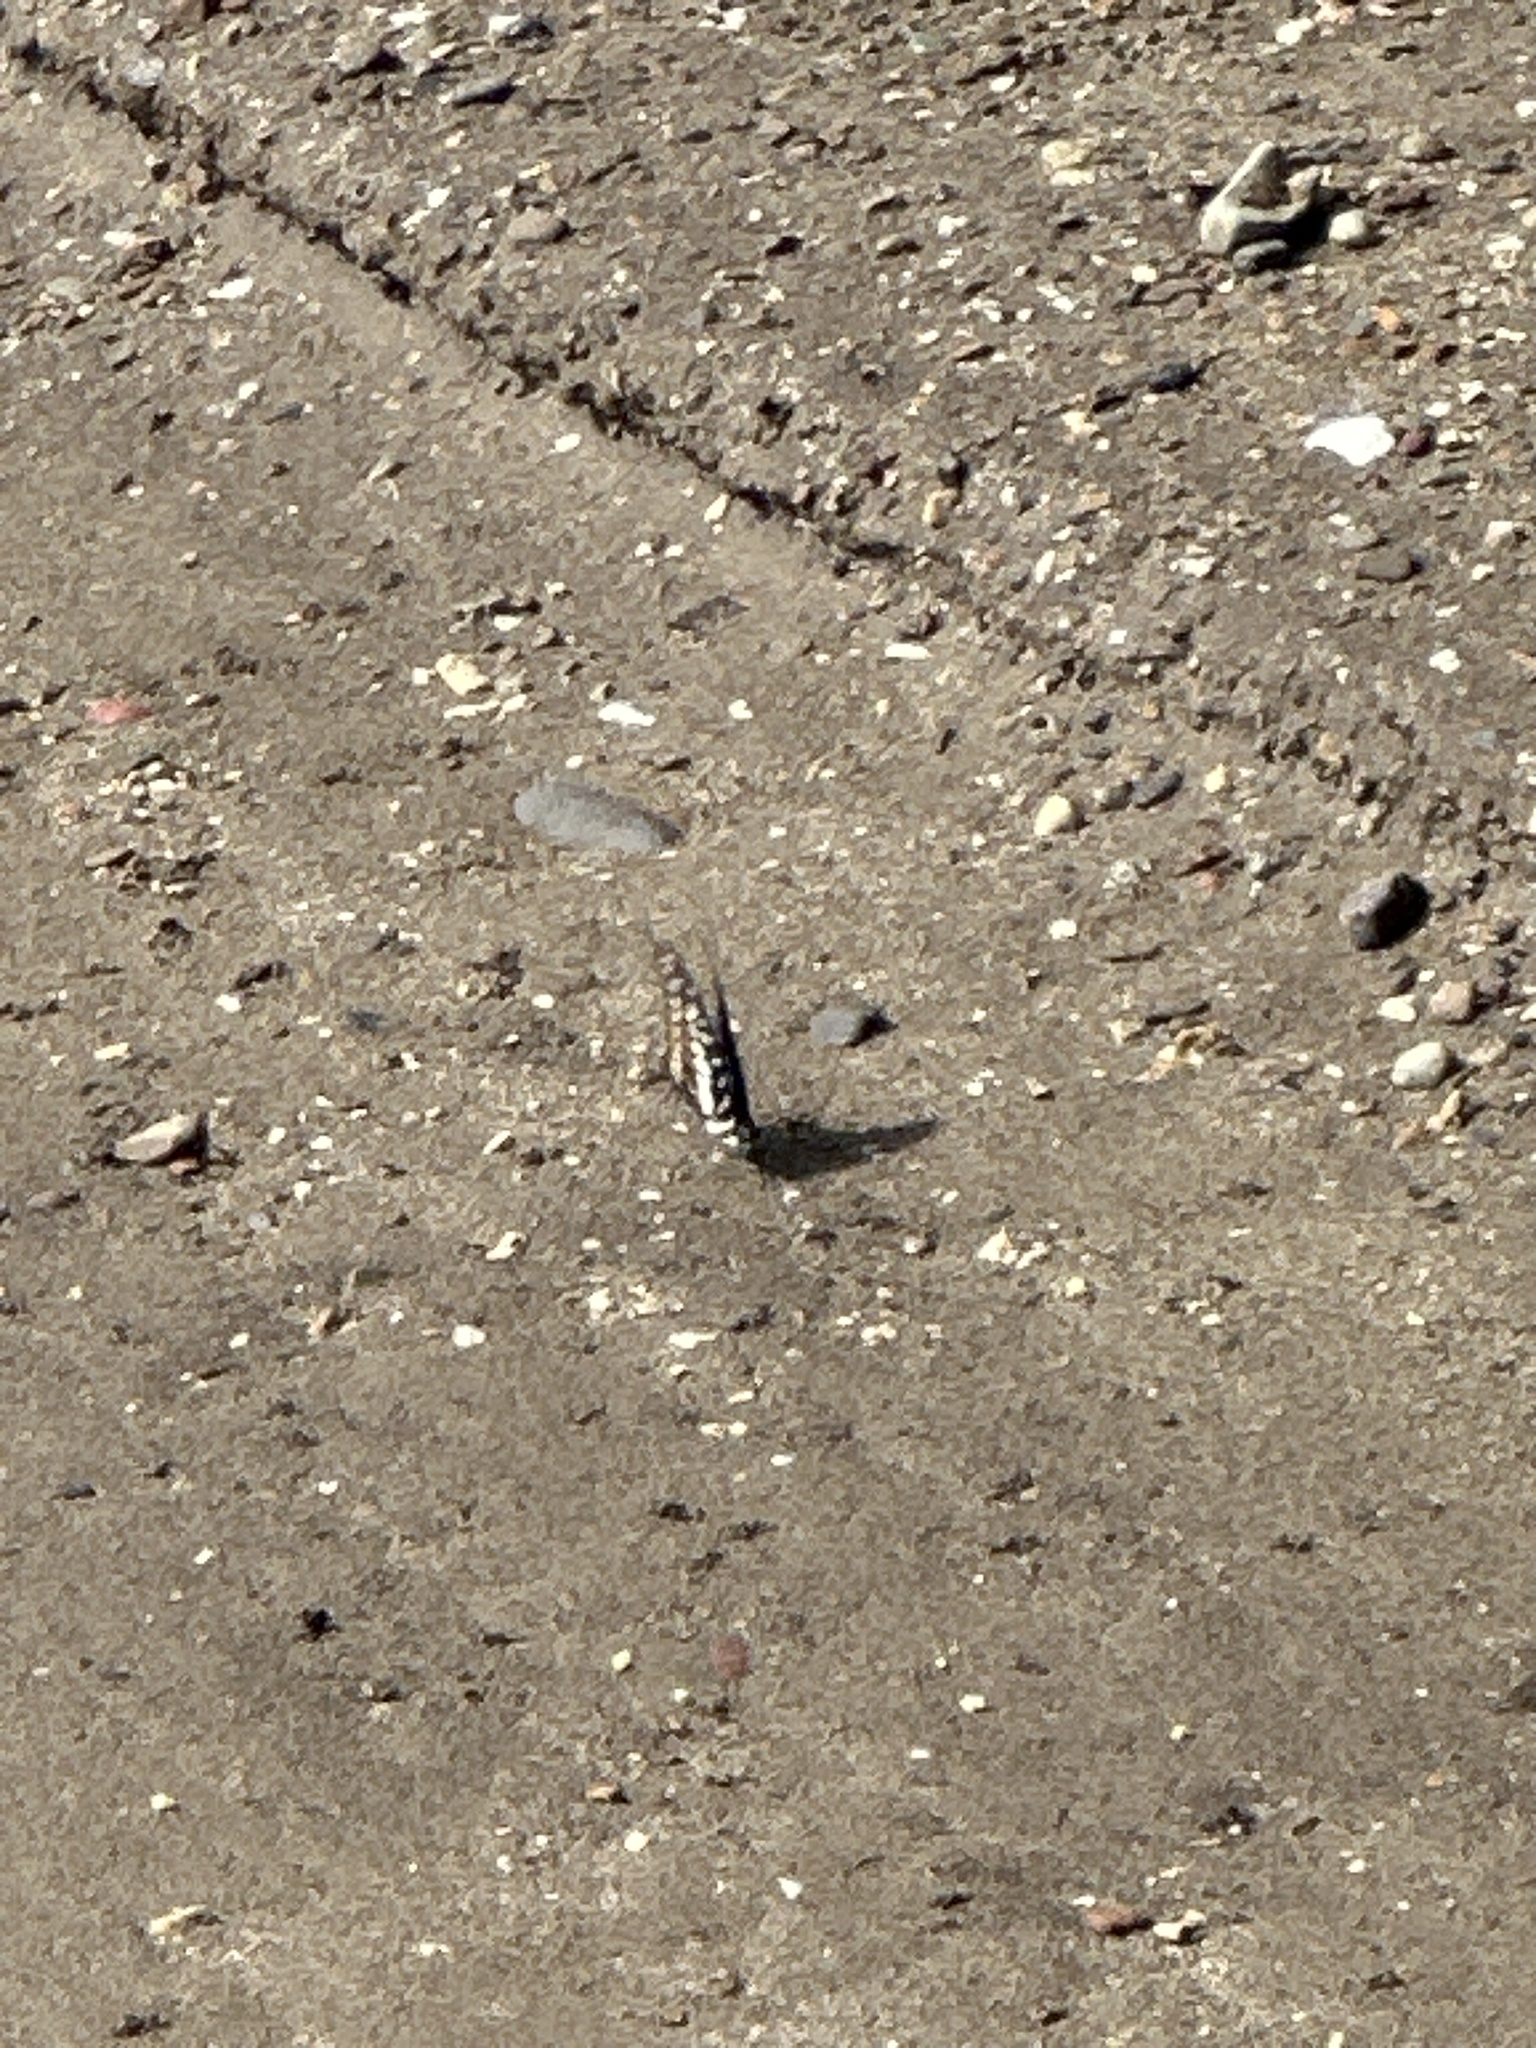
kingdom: Animalia
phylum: Arthropoda
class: Insecta
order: Lepidoptera
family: Papilionidae
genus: Graphium
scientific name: Graphium eurypylus
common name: Great jay
